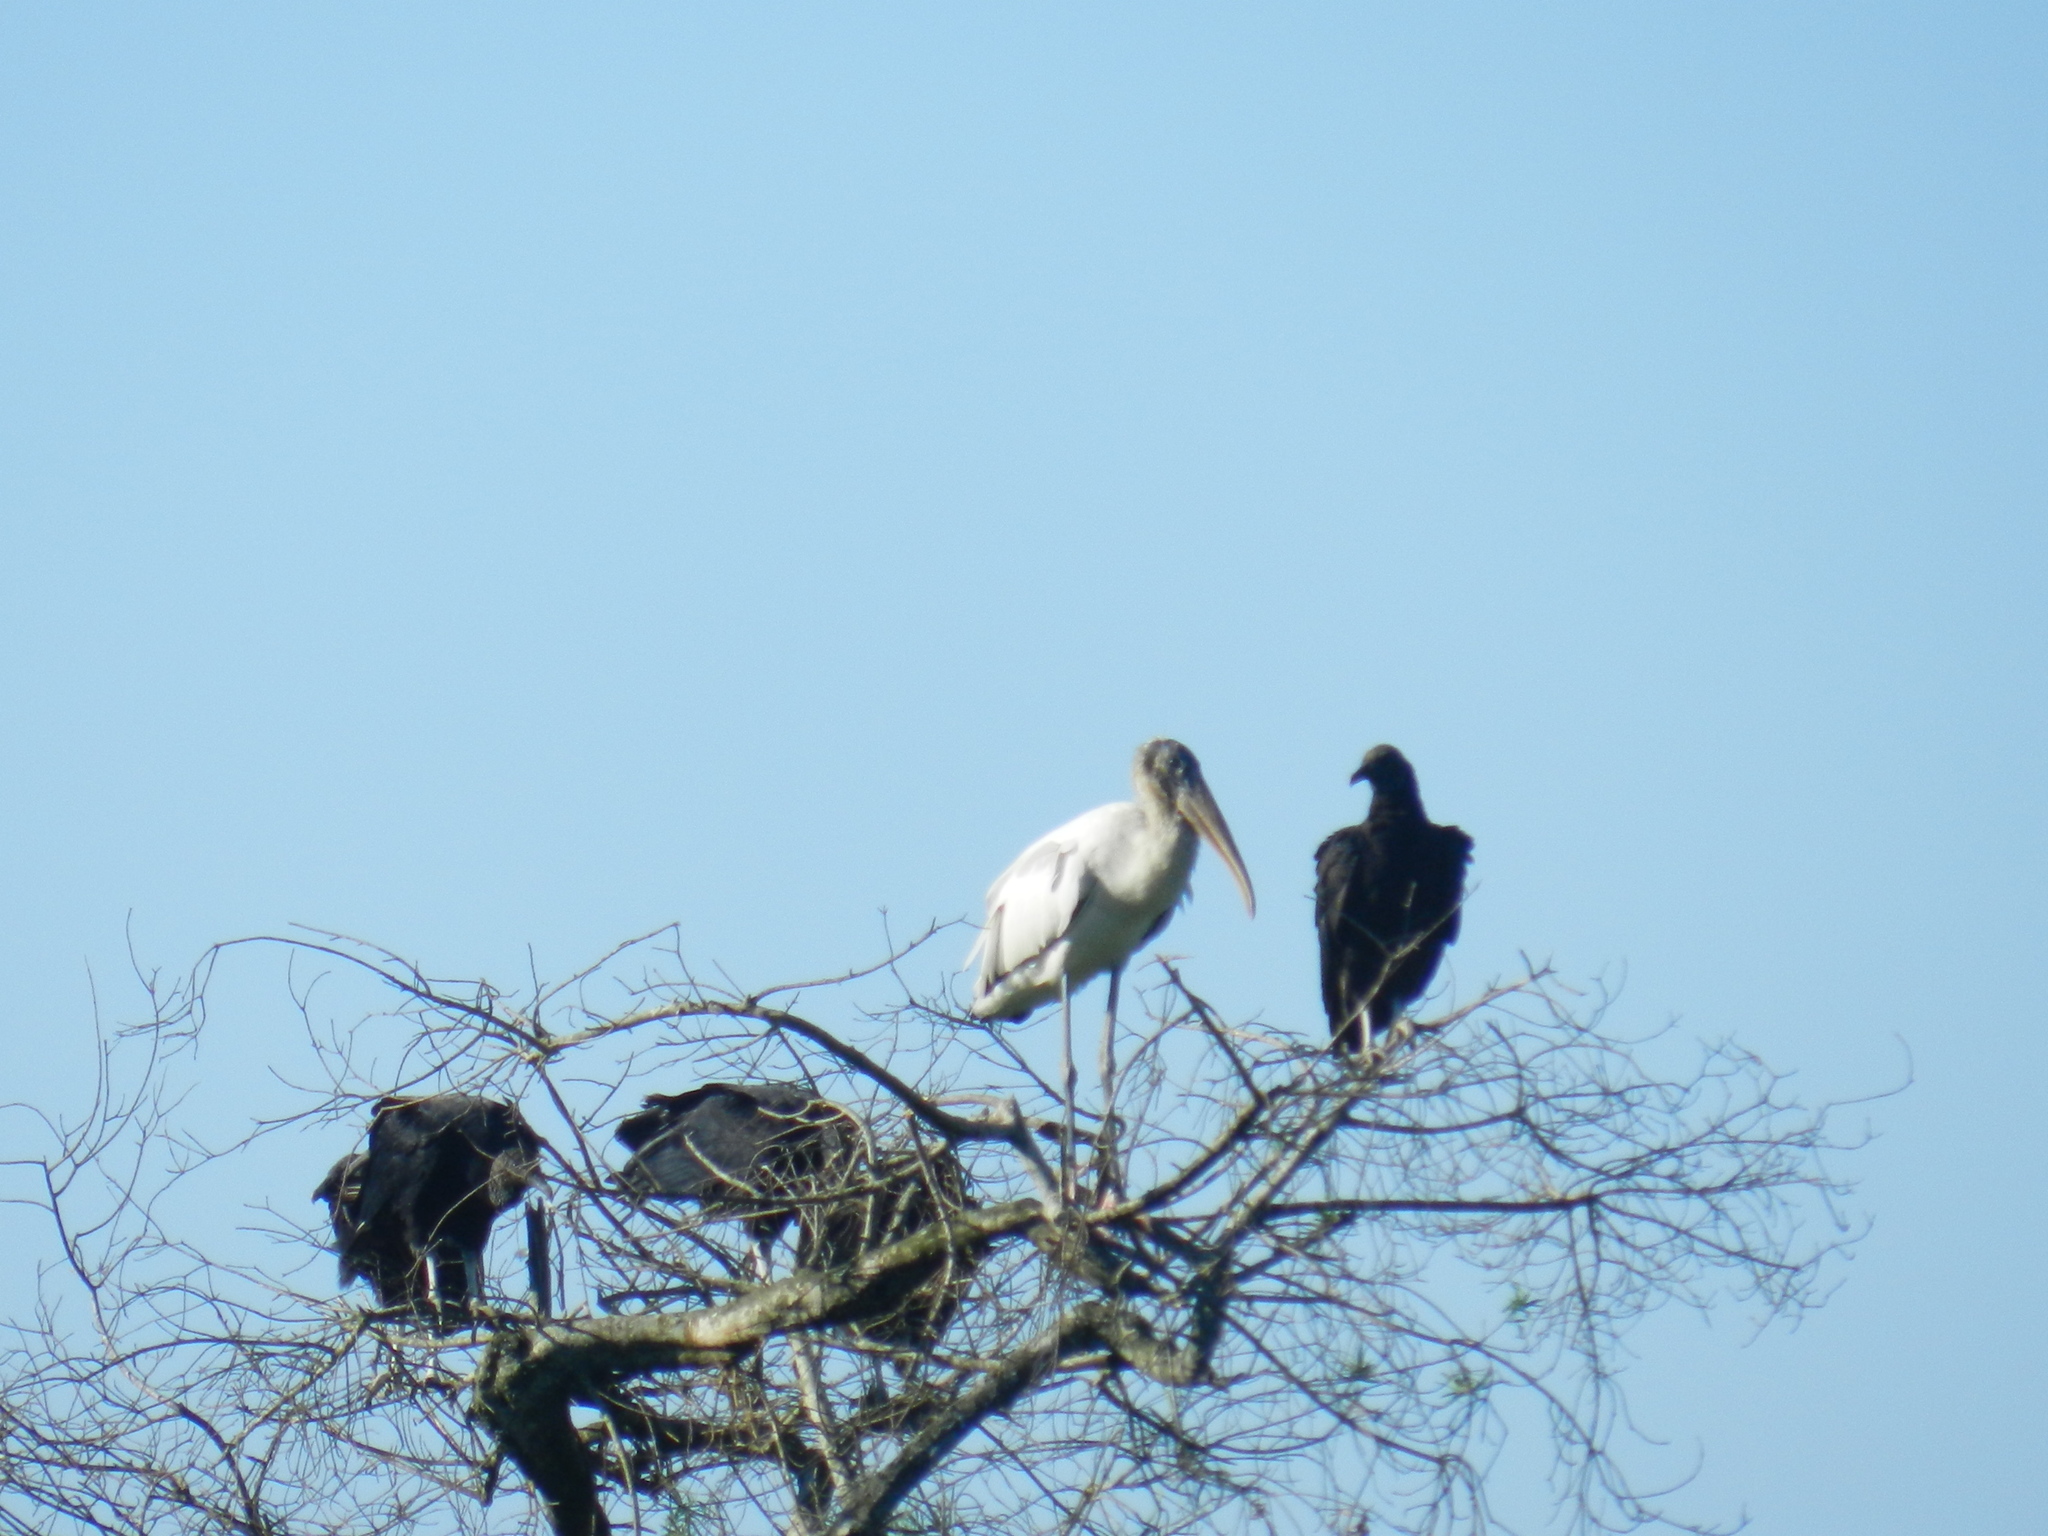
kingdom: Animalia
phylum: Chordata
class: Aves
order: Accipitriformes
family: Cathartidae
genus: Coragyps
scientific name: Coragyps atratus
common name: Black vulture
